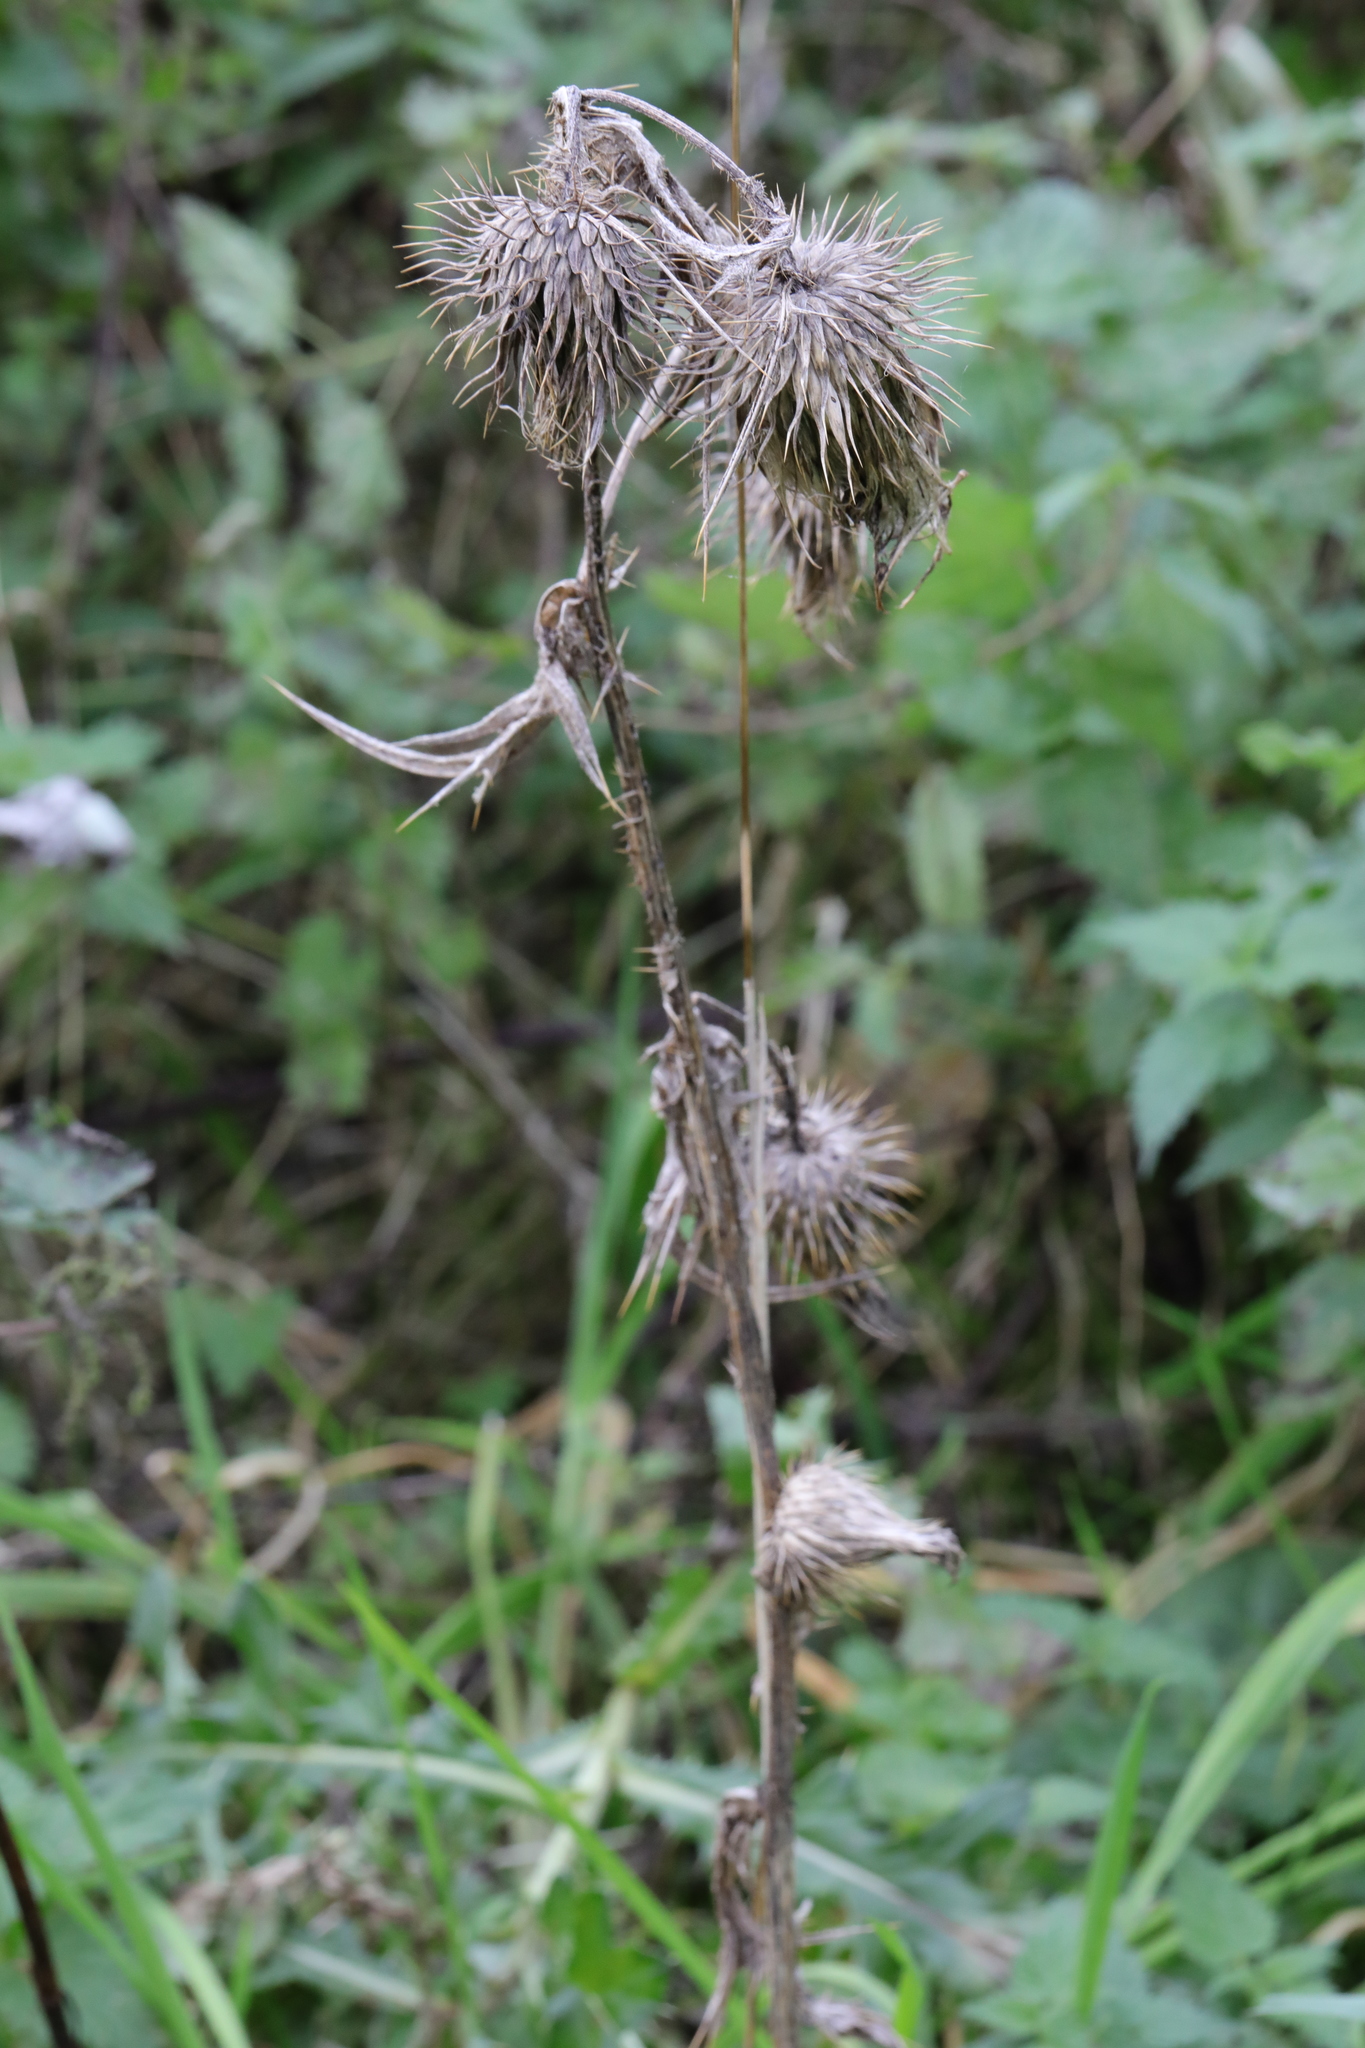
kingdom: Plantae
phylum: Tracheophyta
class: Magnoliopsida
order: Asterales
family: Asteraceae
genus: Cirsium
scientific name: Cirsium vulgare
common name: Bull thistle
